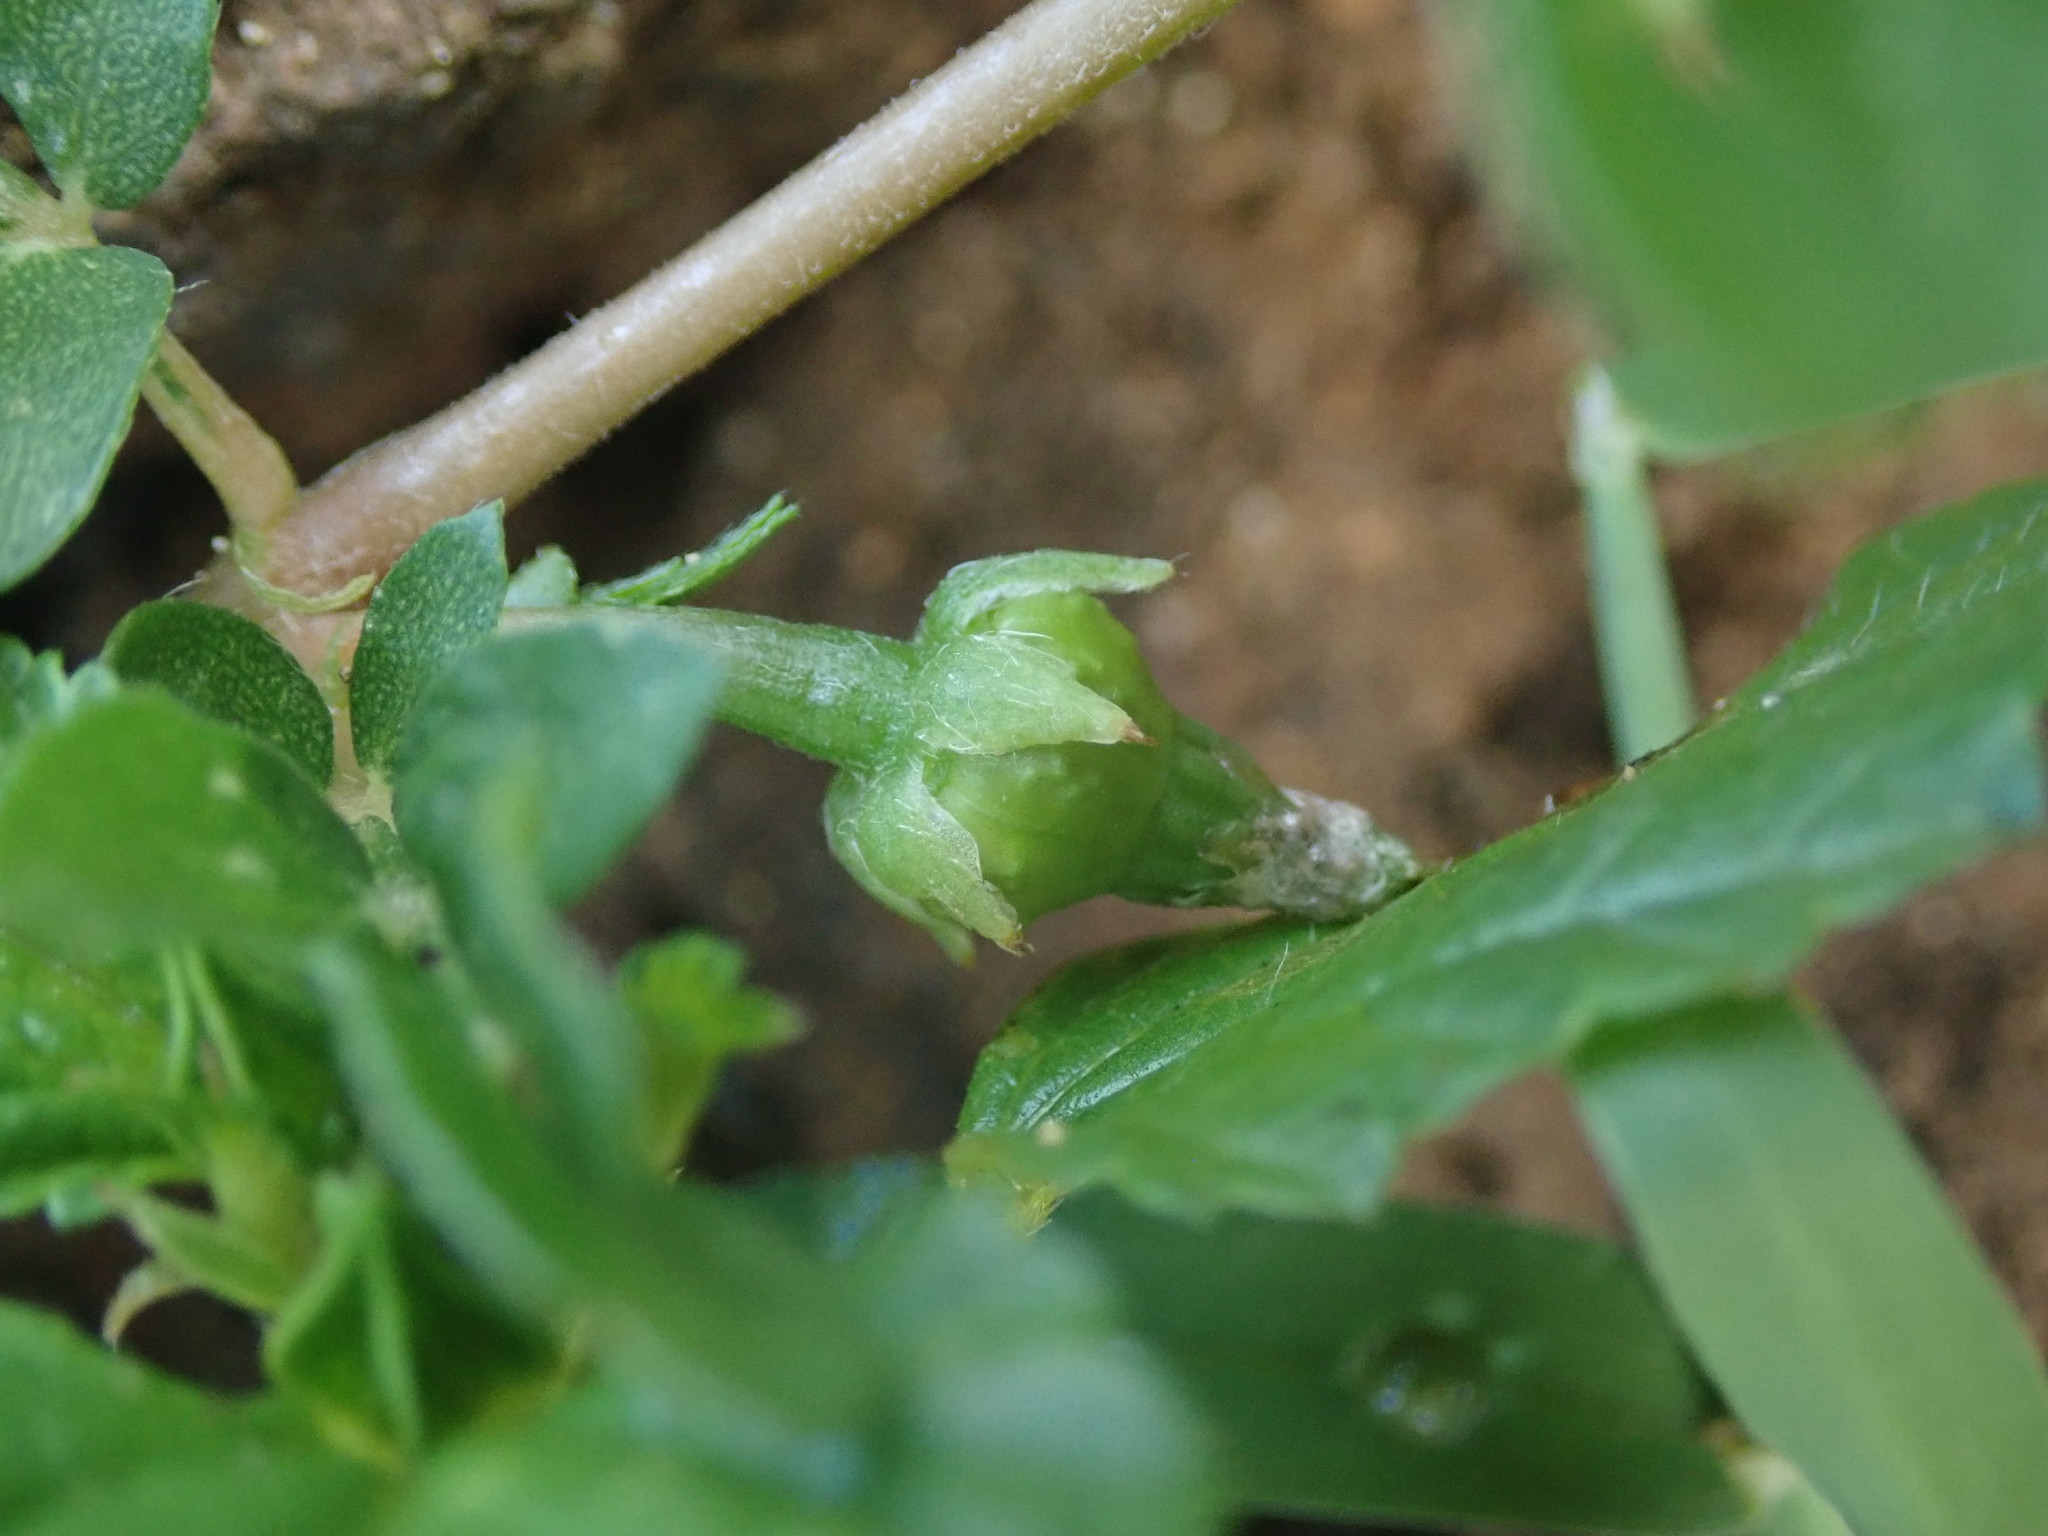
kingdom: Plantae
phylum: Tracheophyta
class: Magnoliopsida
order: Zygophyllales
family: Zygophyllaceae
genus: Kallstroemia
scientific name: Kallstroemia maxima
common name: Big caltropa
